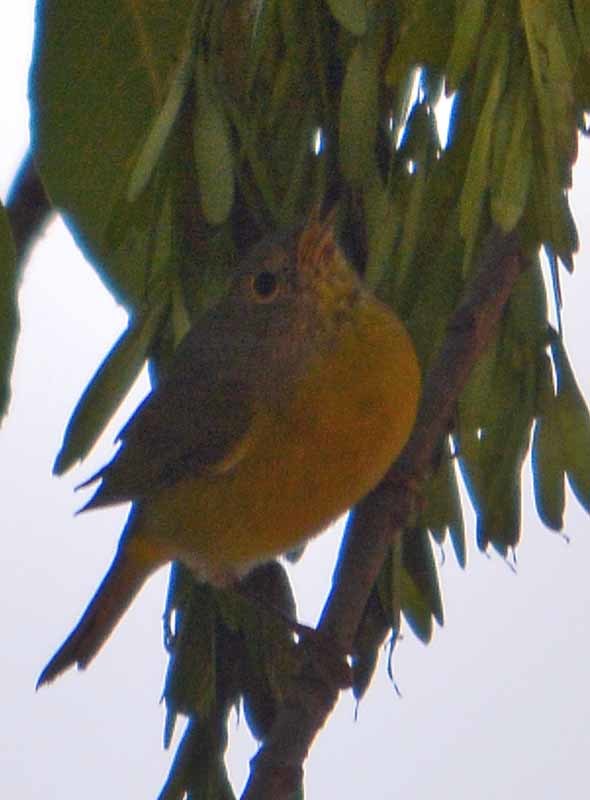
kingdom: Animalia
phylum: Chordata
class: Aves
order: Passeriformes
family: Parulidae
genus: Leiothlypis
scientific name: Leiothlypis ruficapilla
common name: Nashville warbler
